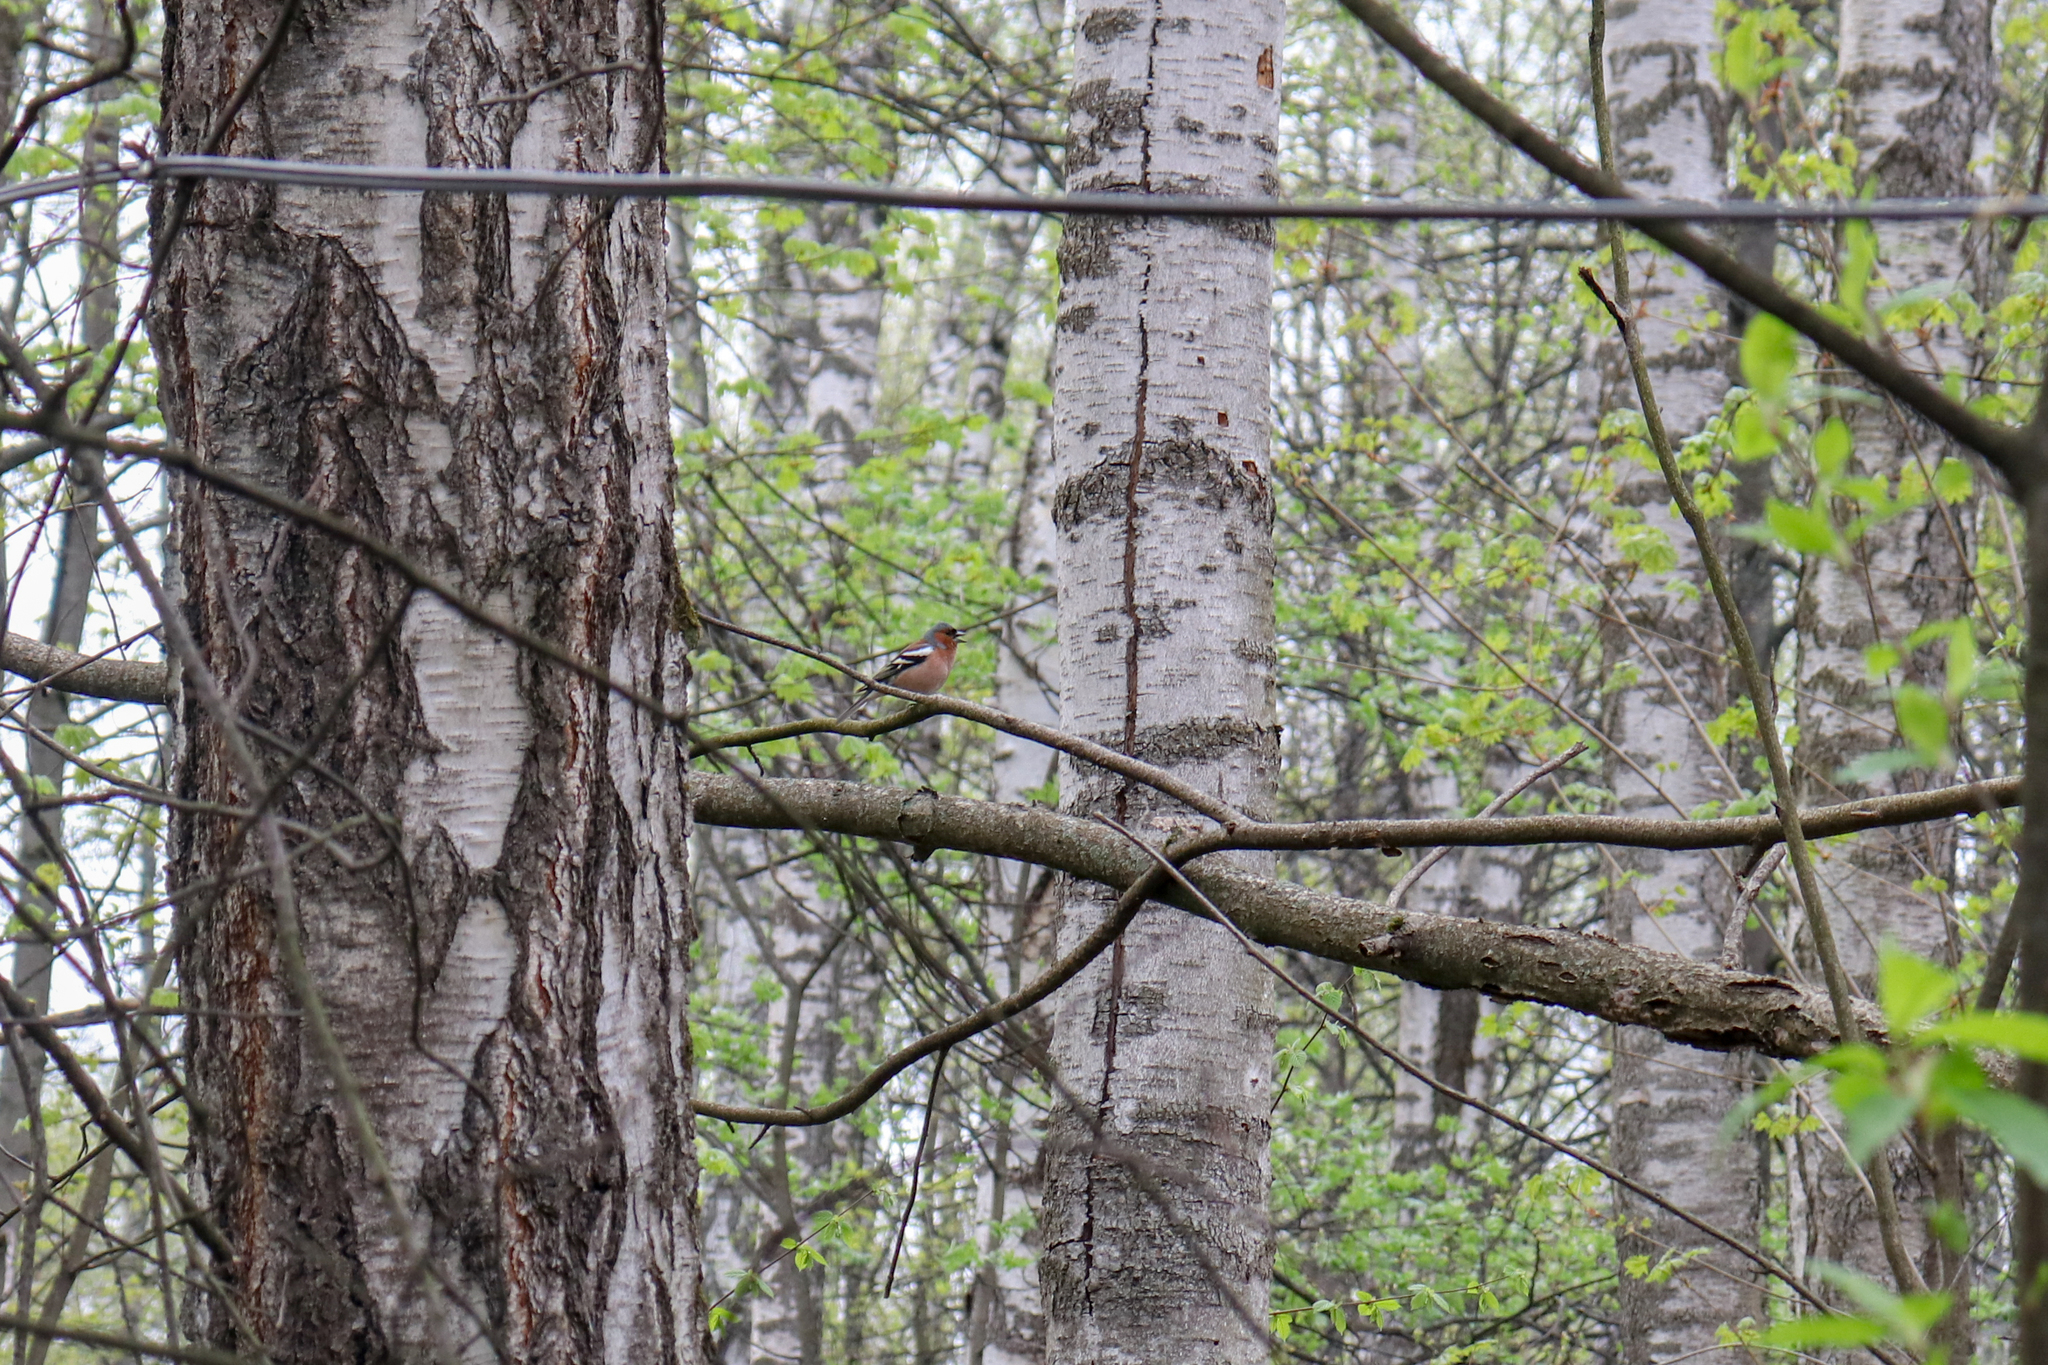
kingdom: Animalia
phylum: Chordata
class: Aves
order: Passeriformes
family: Fringillidae
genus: Fringilla
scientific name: Fringilla coelebs
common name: Common chaffinch
